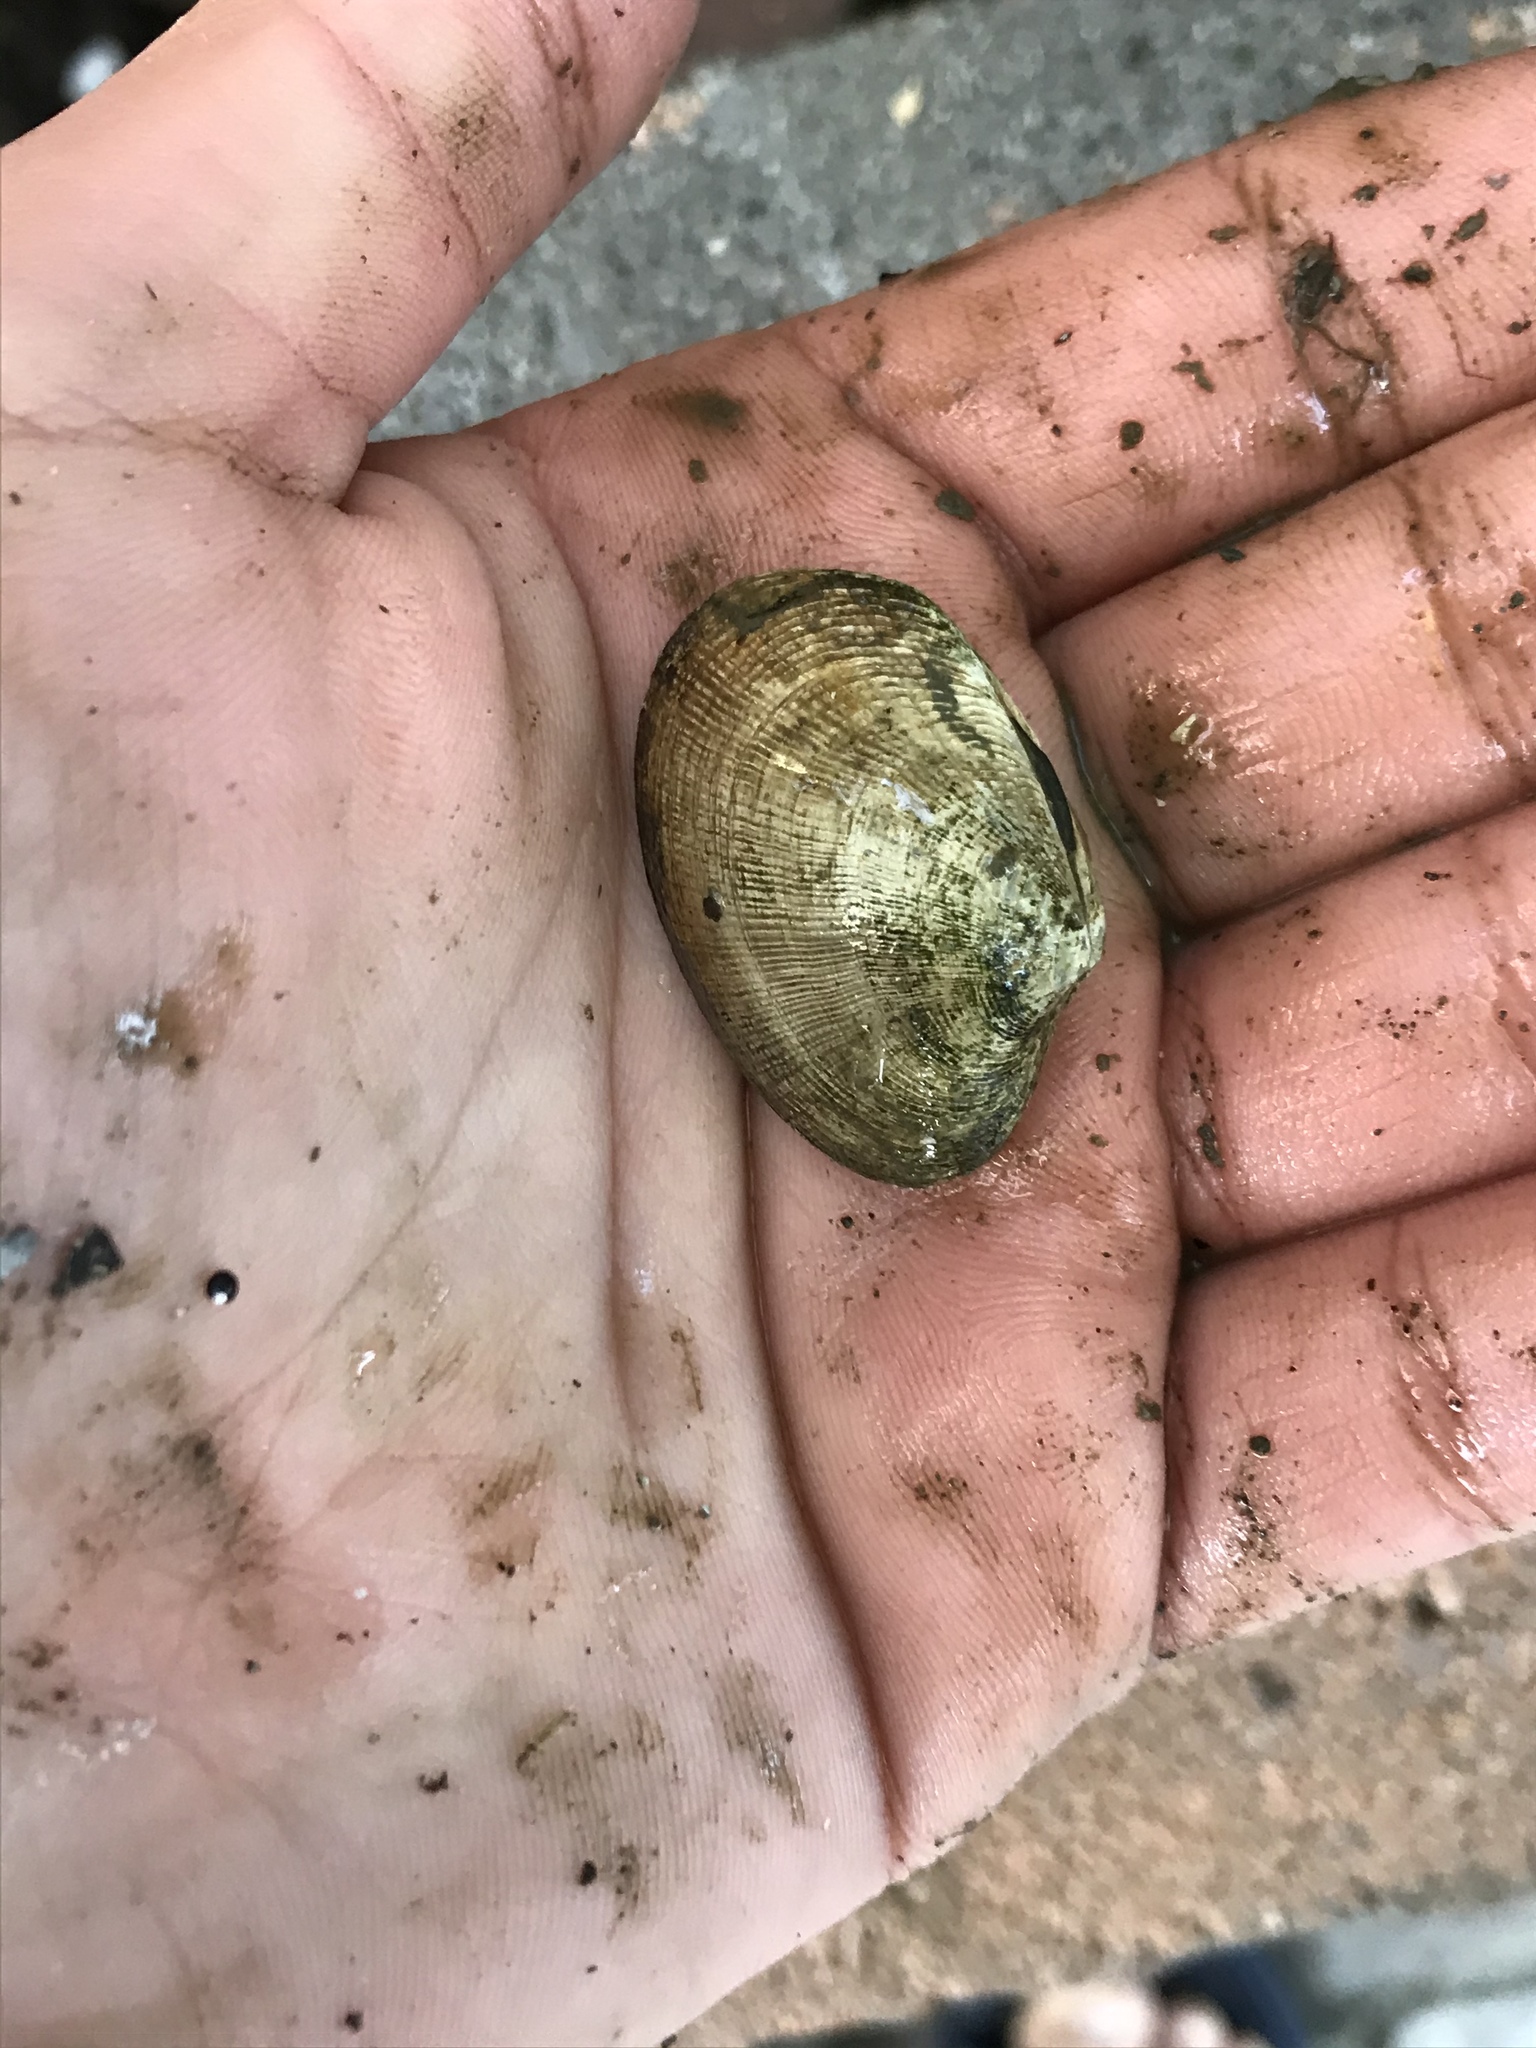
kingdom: Animalia
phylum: Mollusca
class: Bivalvia
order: Venerida
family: Veneridae
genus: Ruditapes
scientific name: Ruditapes philippinarum
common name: Manila clam
